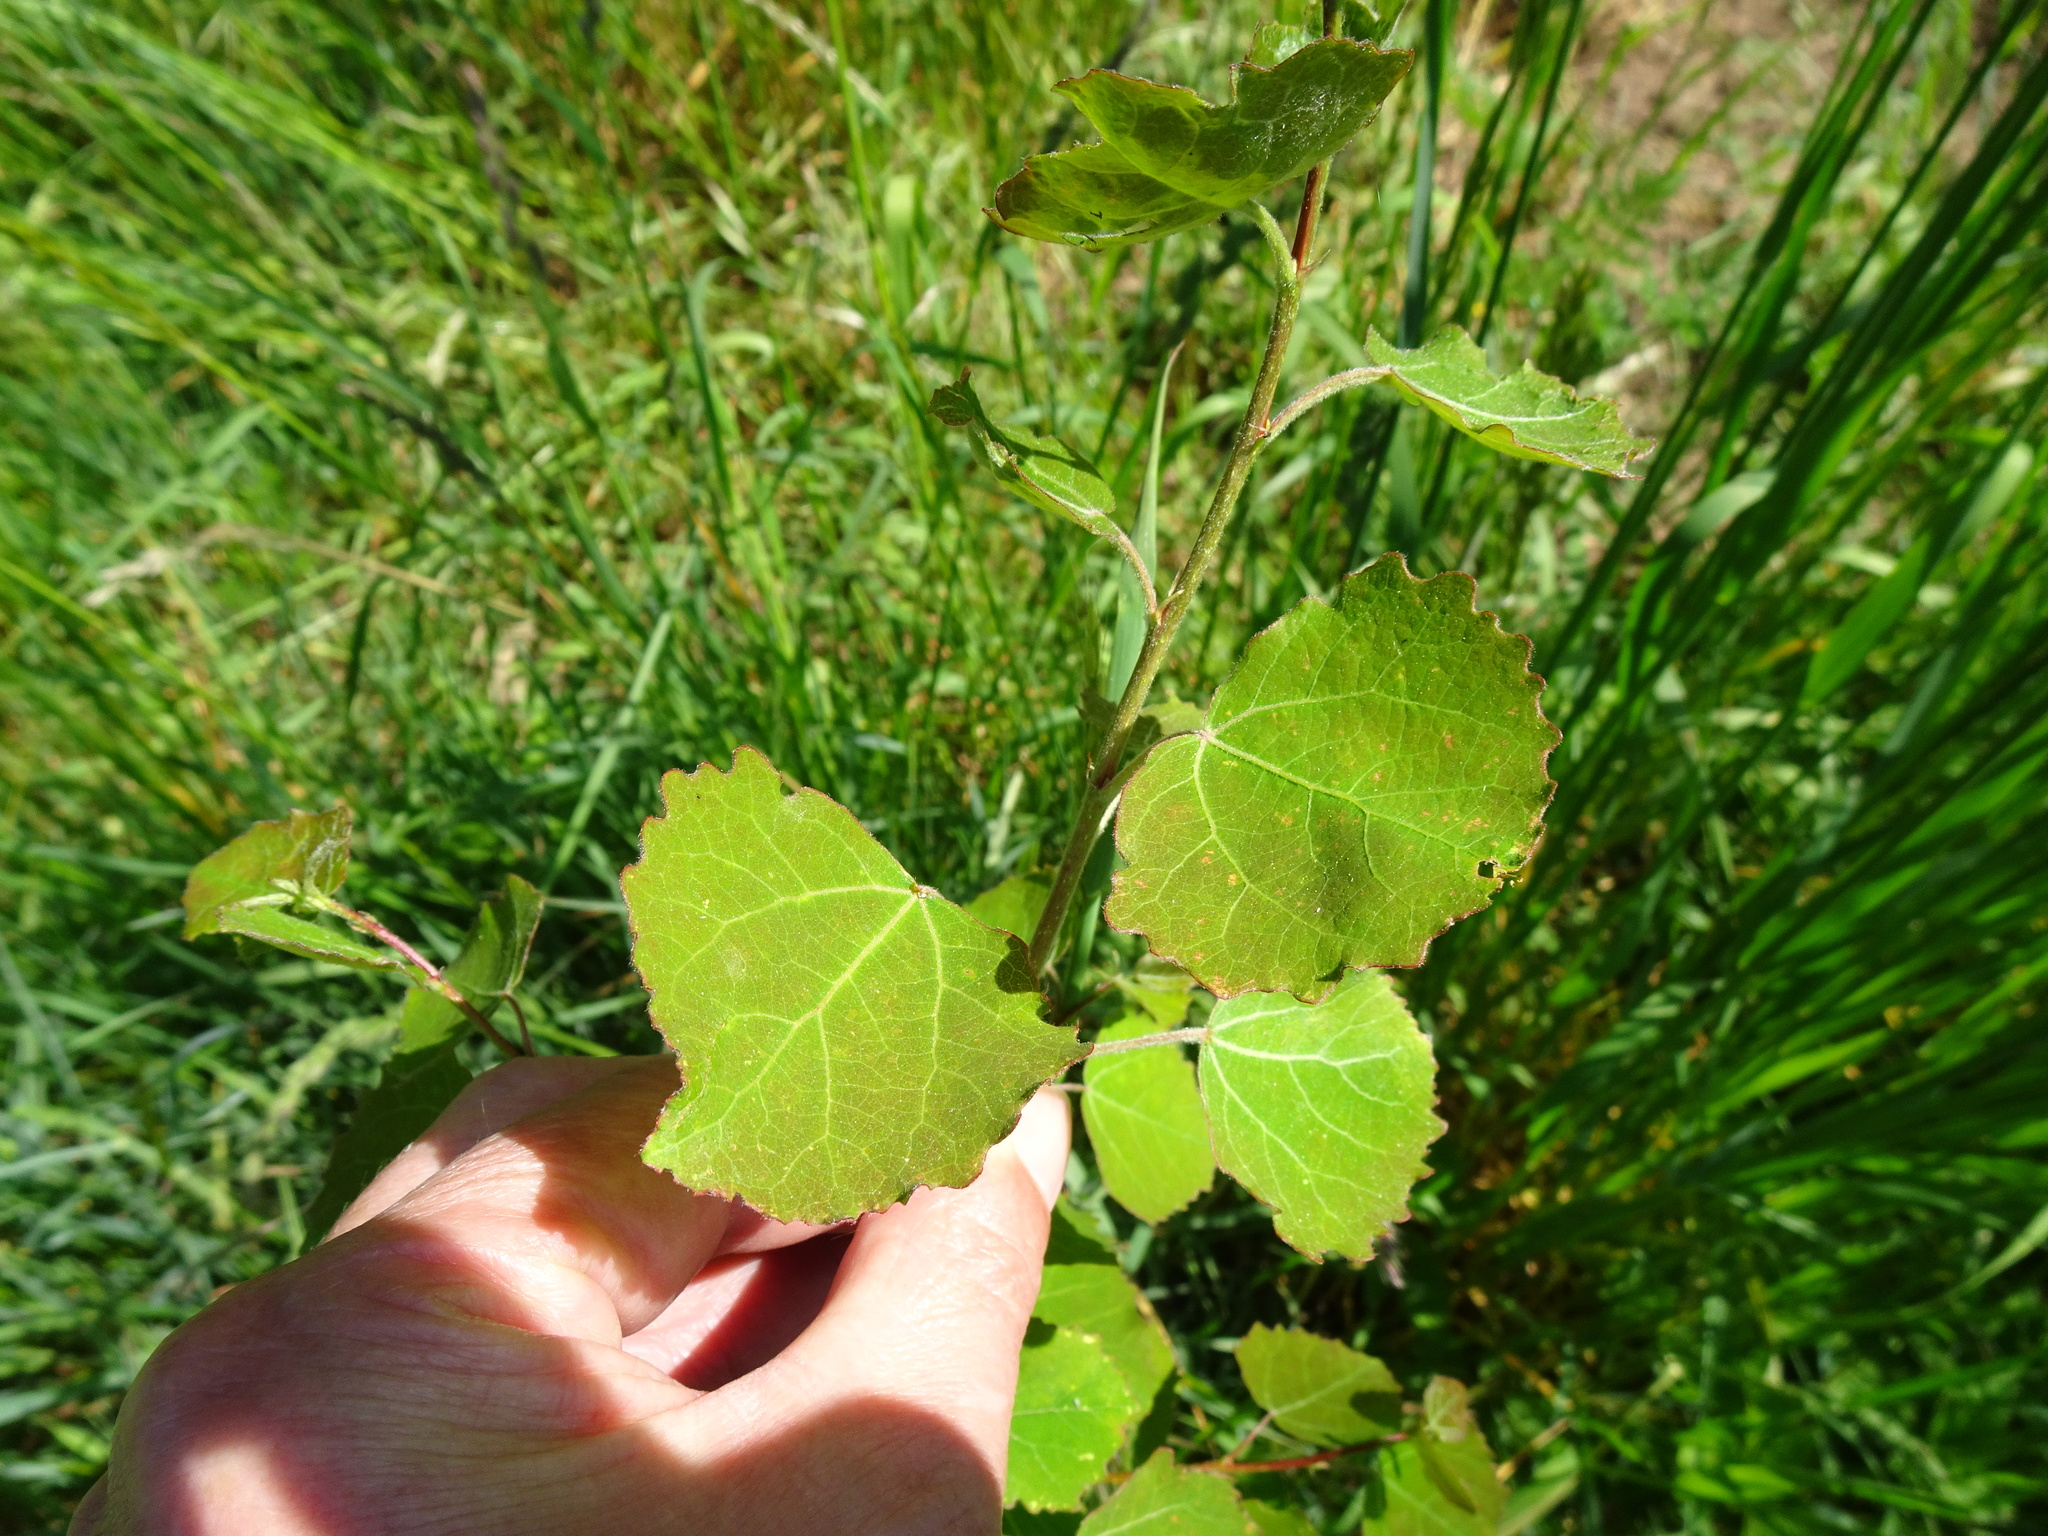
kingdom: Plantae
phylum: Tracheophyta
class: Magnoliopsida
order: Malpighiales
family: Salicaceae
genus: Populus
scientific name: Populus tremula
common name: European aspen
